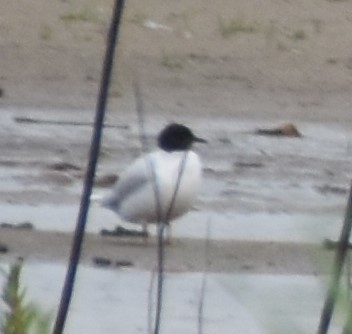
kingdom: Animalia
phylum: Chordata
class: Aves
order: Charadriiformes
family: Laridae
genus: Hydrocoloeus
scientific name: Hydrocoloeus minutus
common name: Little gull
